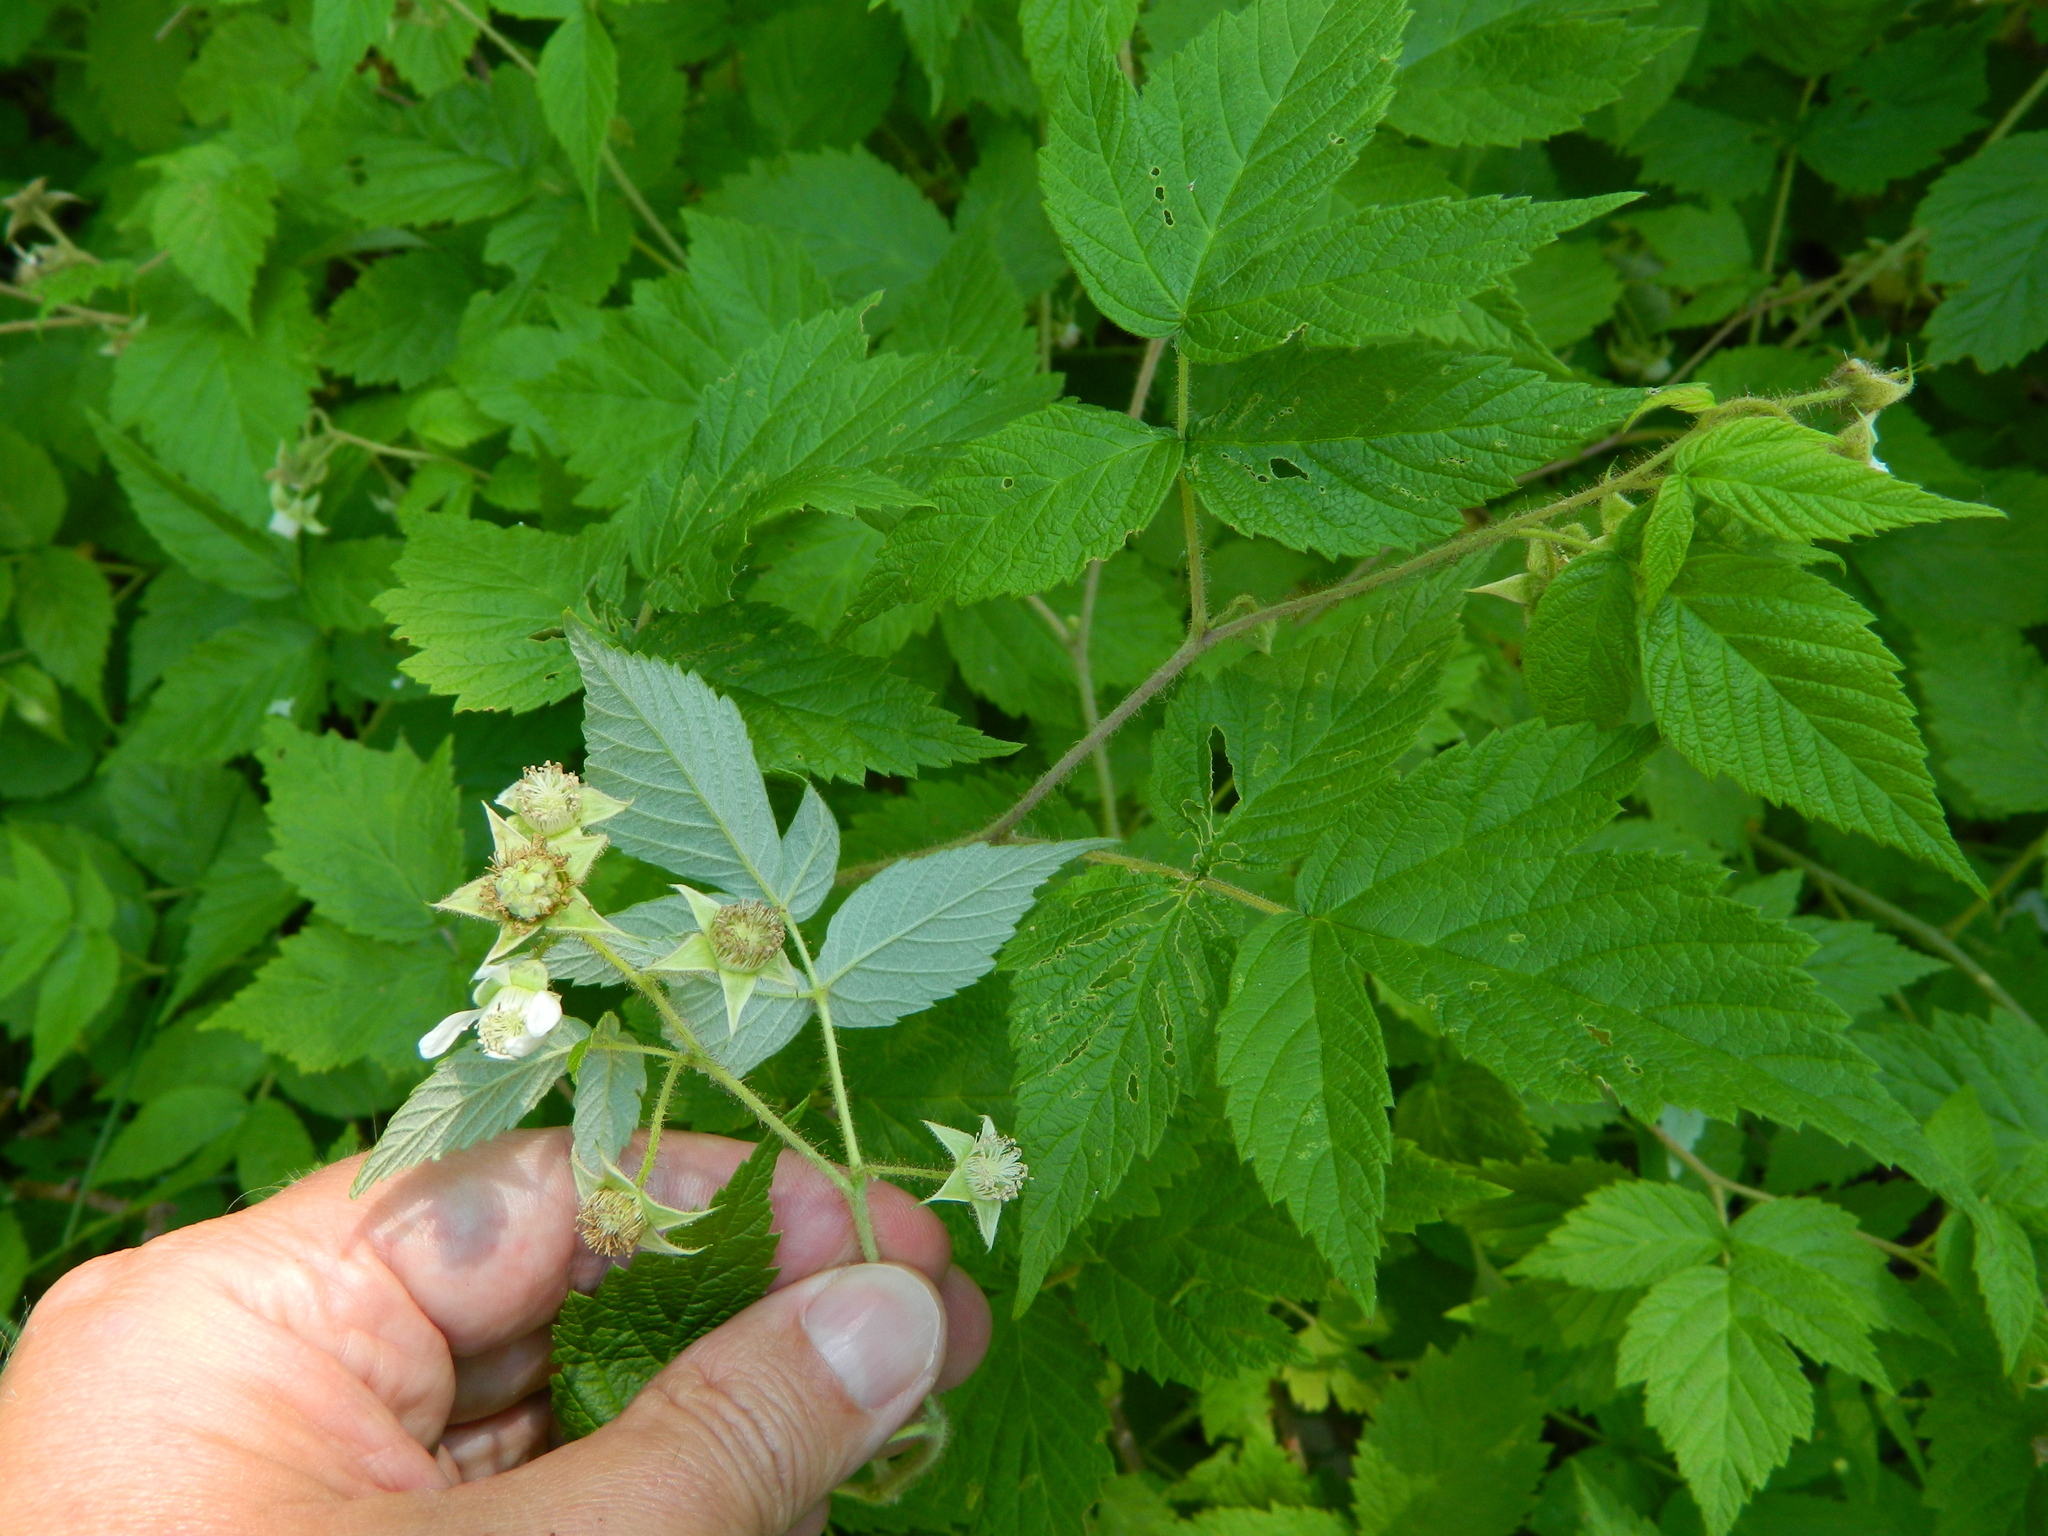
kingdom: Plantae
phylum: Tracheophyta
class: Magnoliopsida
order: Rosales
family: Rosaceae
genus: Rubus
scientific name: Rubus idaeus
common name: Raspberry
